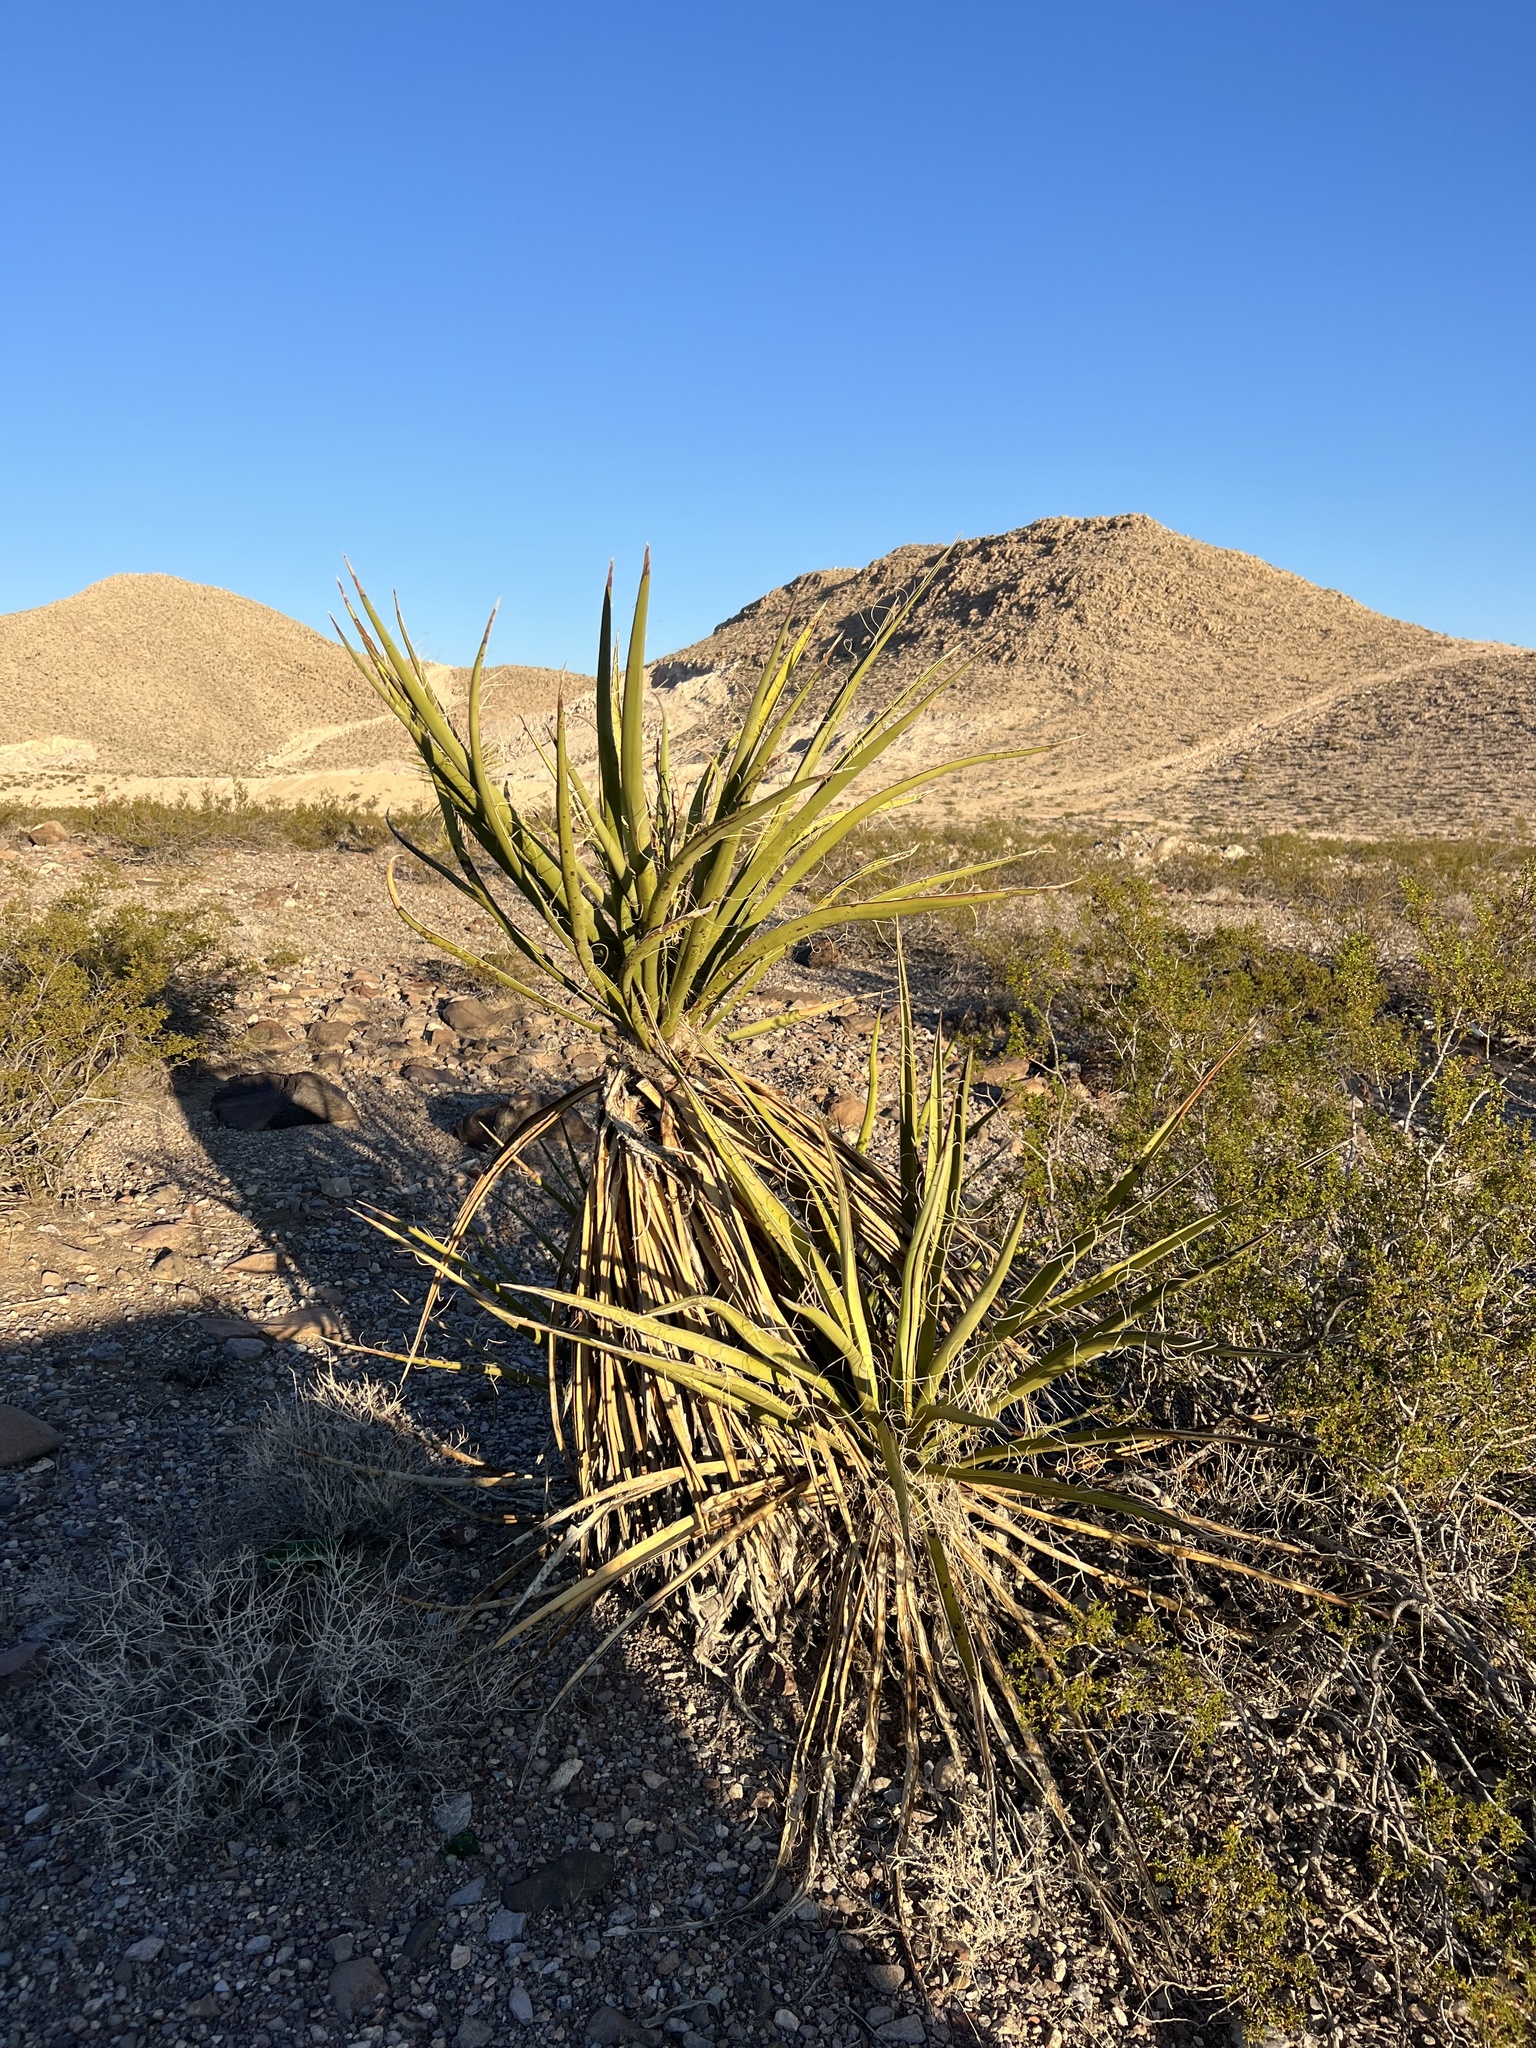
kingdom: Plantae
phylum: Tracheophyta
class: Liliopsida
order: Asparagales
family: Asparagaceae
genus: Yucca
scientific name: Yucca schidigera
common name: Mojave yucca
